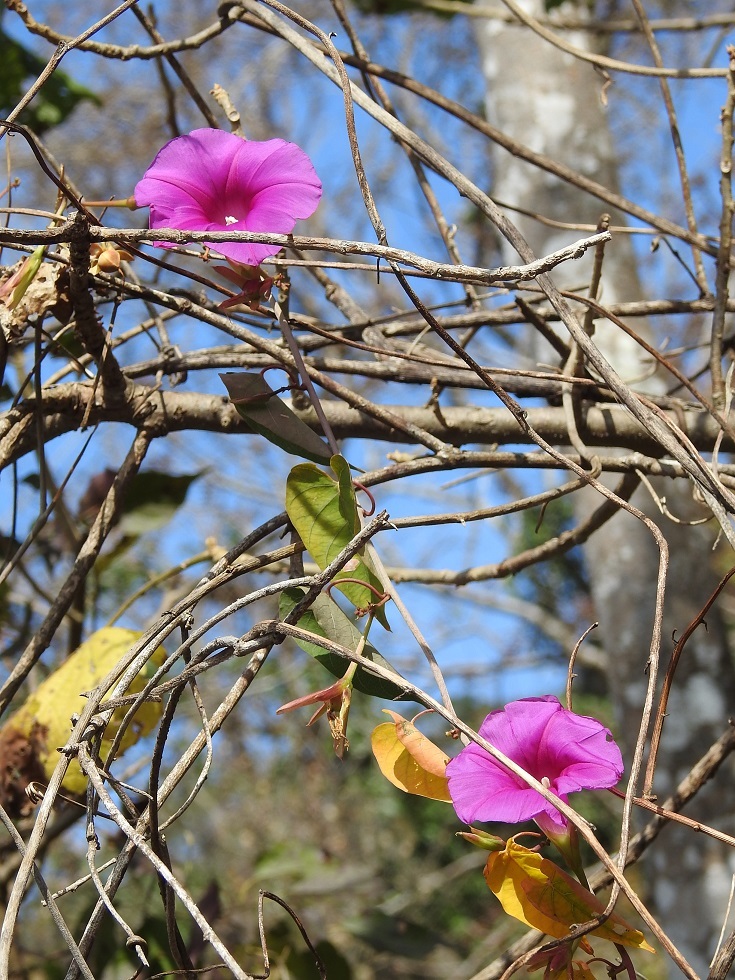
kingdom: Plantae
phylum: Tracheophyta
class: Magnoliopsida
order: Solanales
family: Convolvulaceae
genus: Ipomoea
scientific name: Ipomoea bernoulliana
